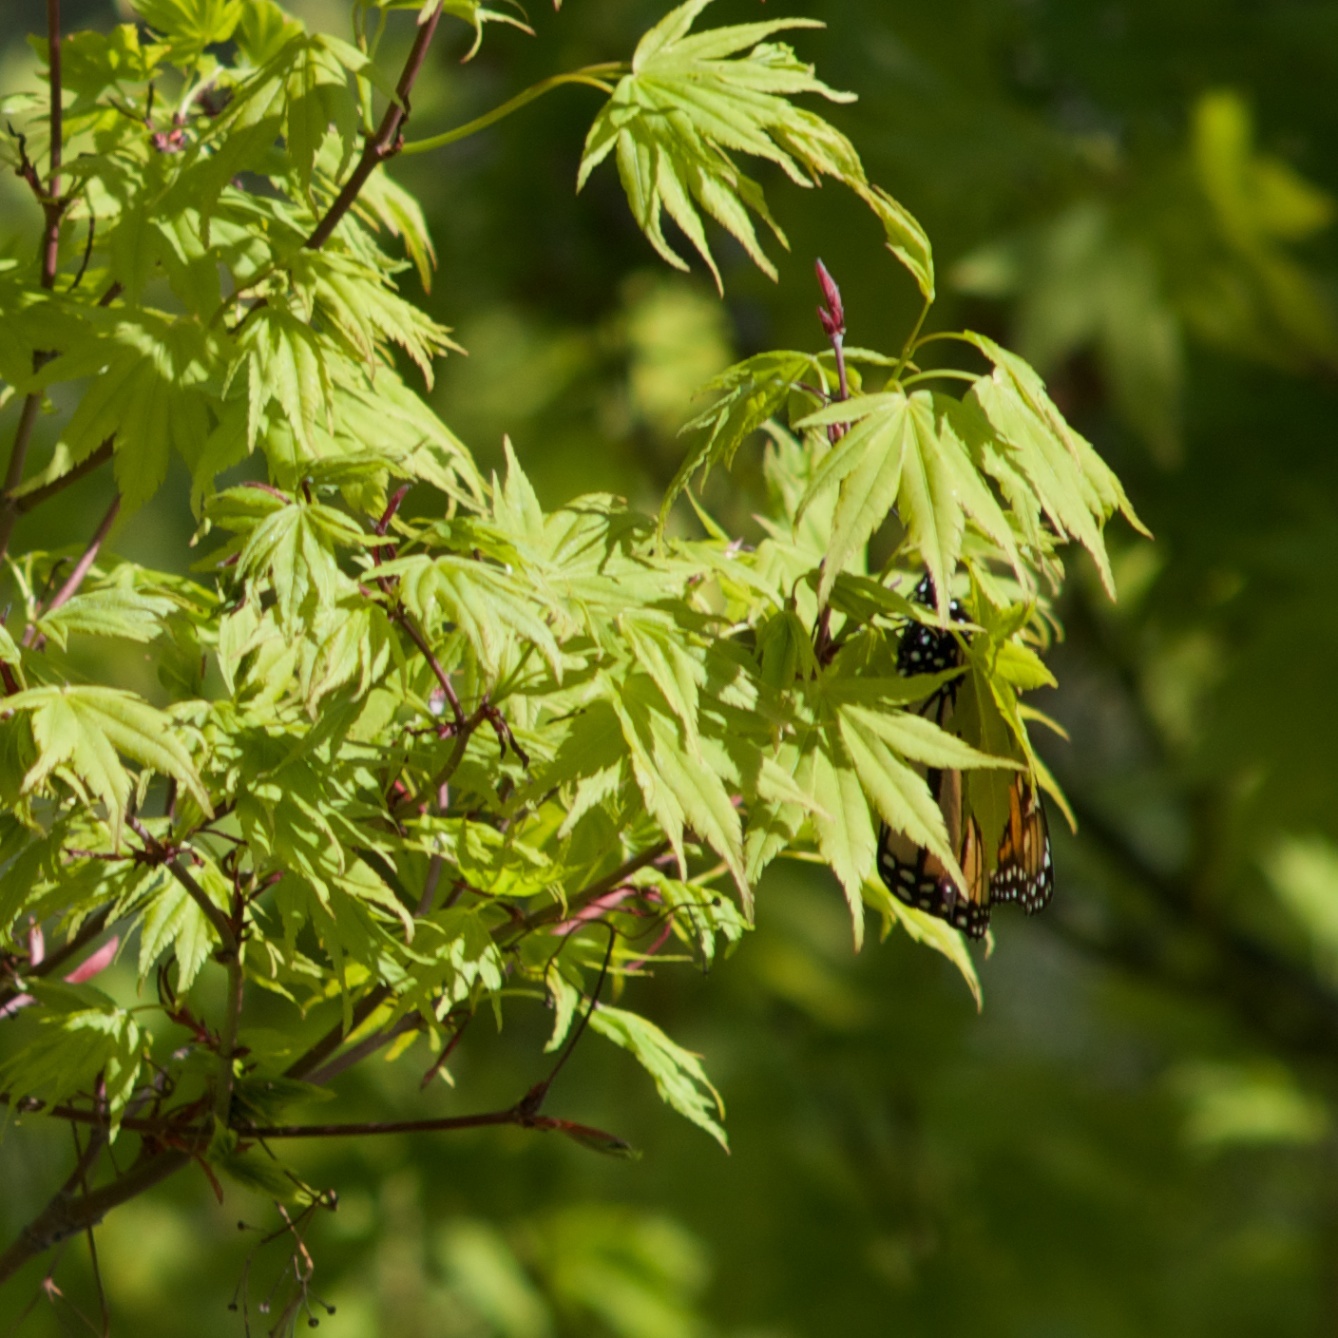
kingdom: Animalia
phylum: Arthropoda
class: Insecta
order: Lepidoptera
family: Nymphalidae
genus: Danaus
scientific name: Danaus plexippus
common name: Monarch
